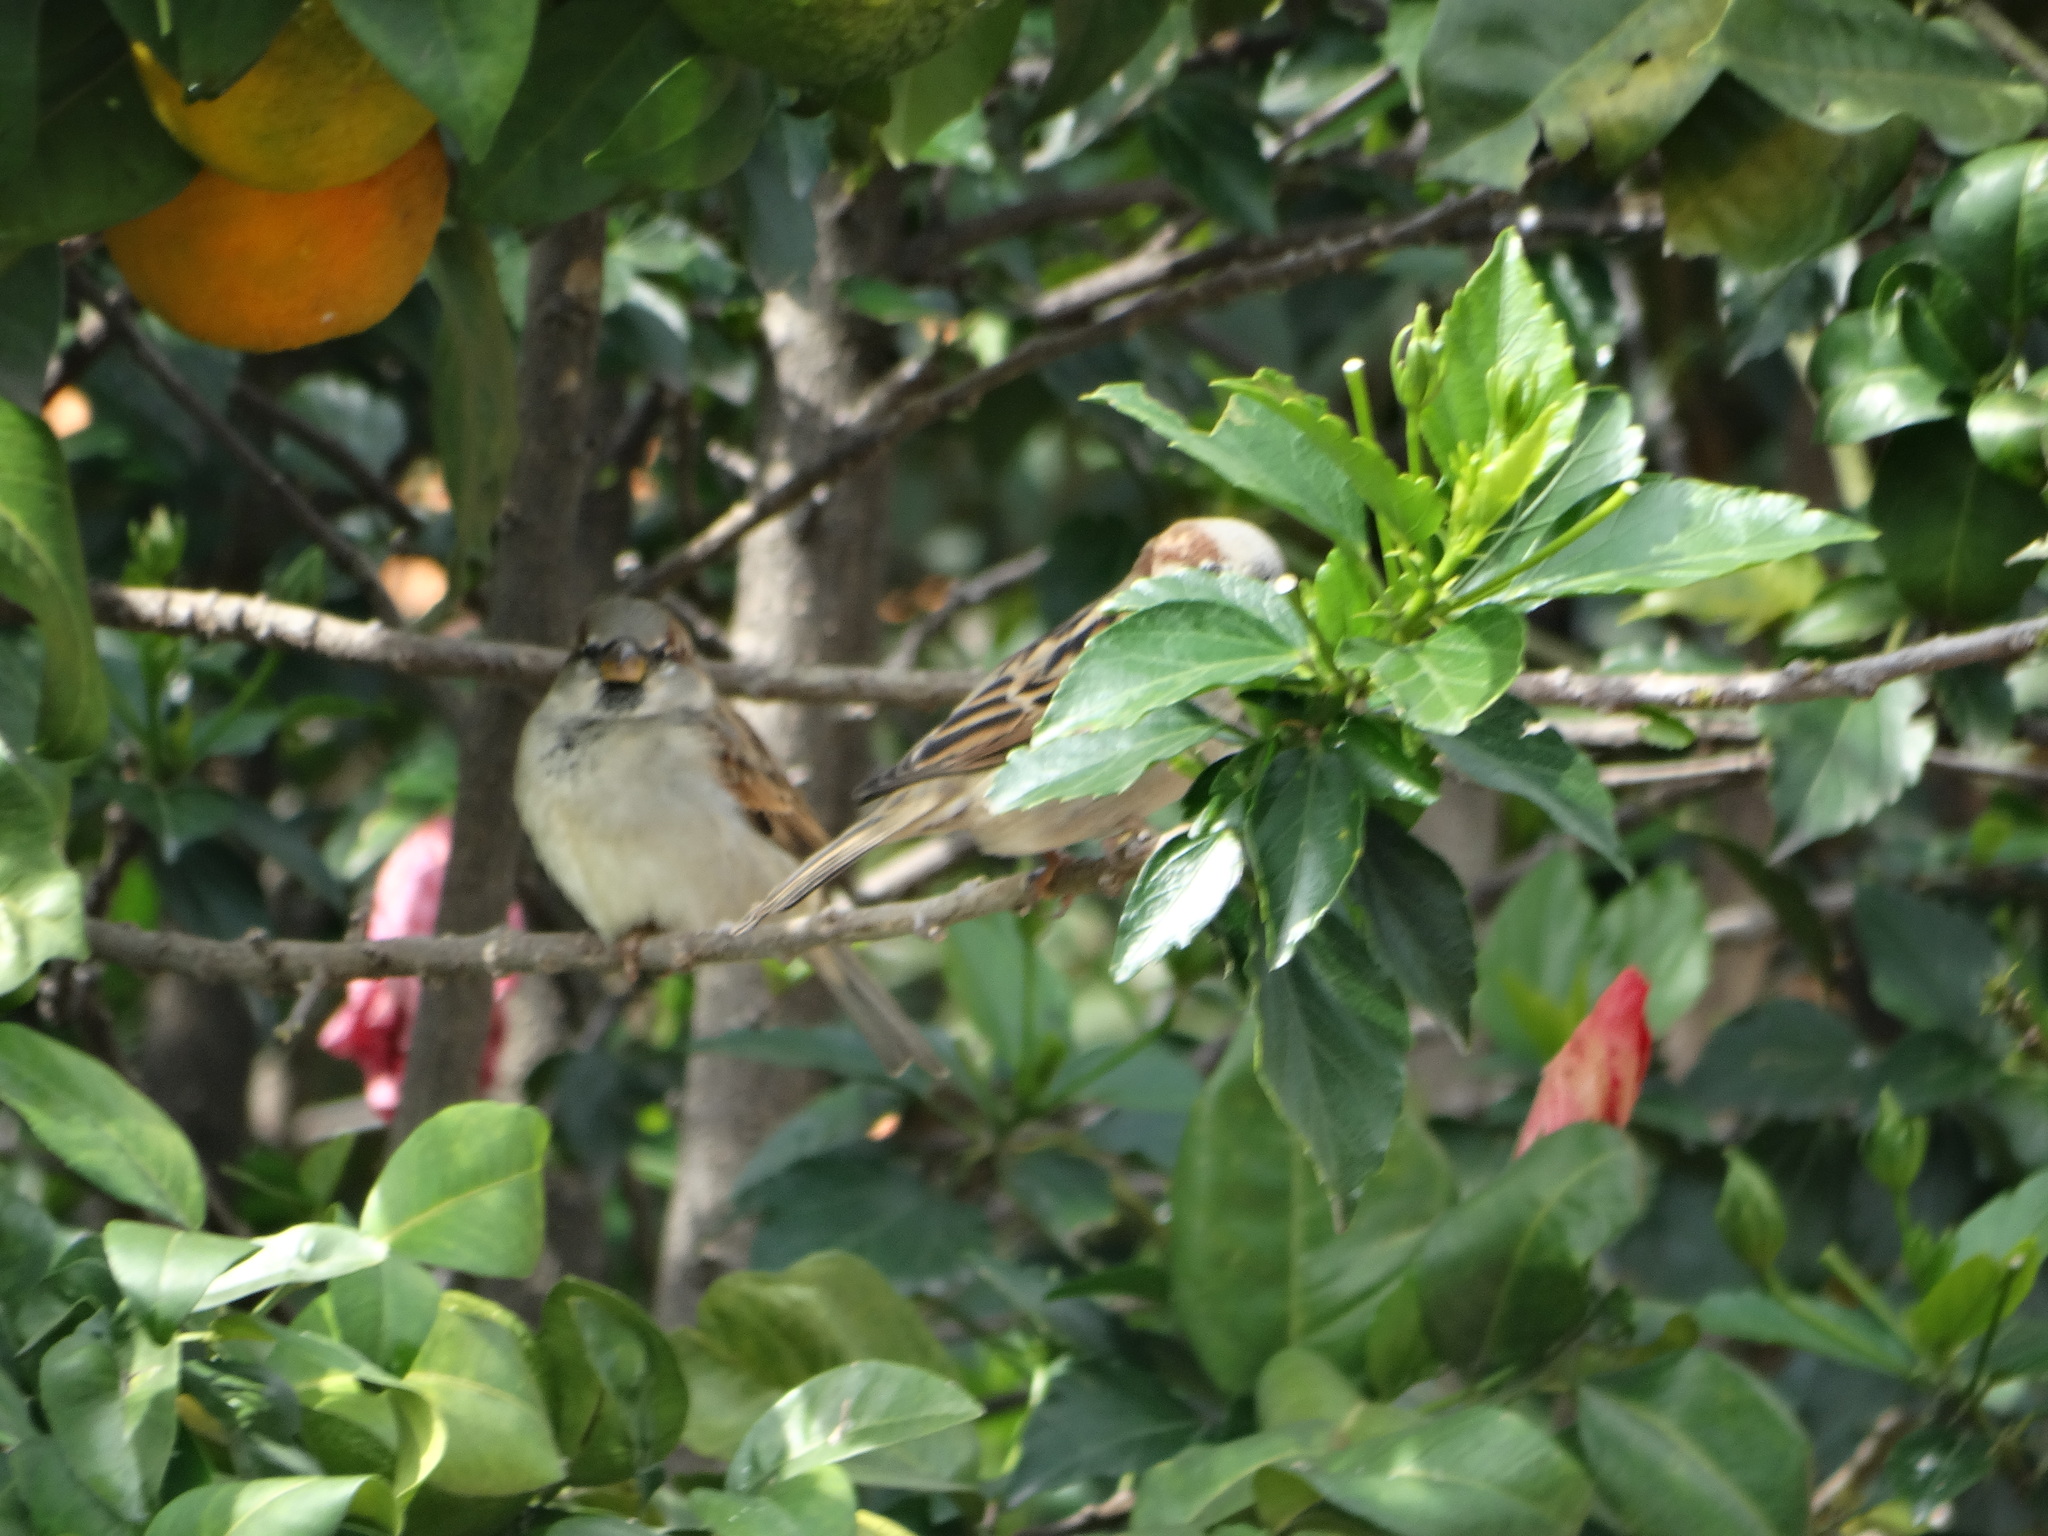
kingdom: Animalia
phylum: Chordata
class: Aves
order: Passeriformes
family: Passeridae
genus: Passer
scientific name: Passer domesticus
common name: House sparrow
